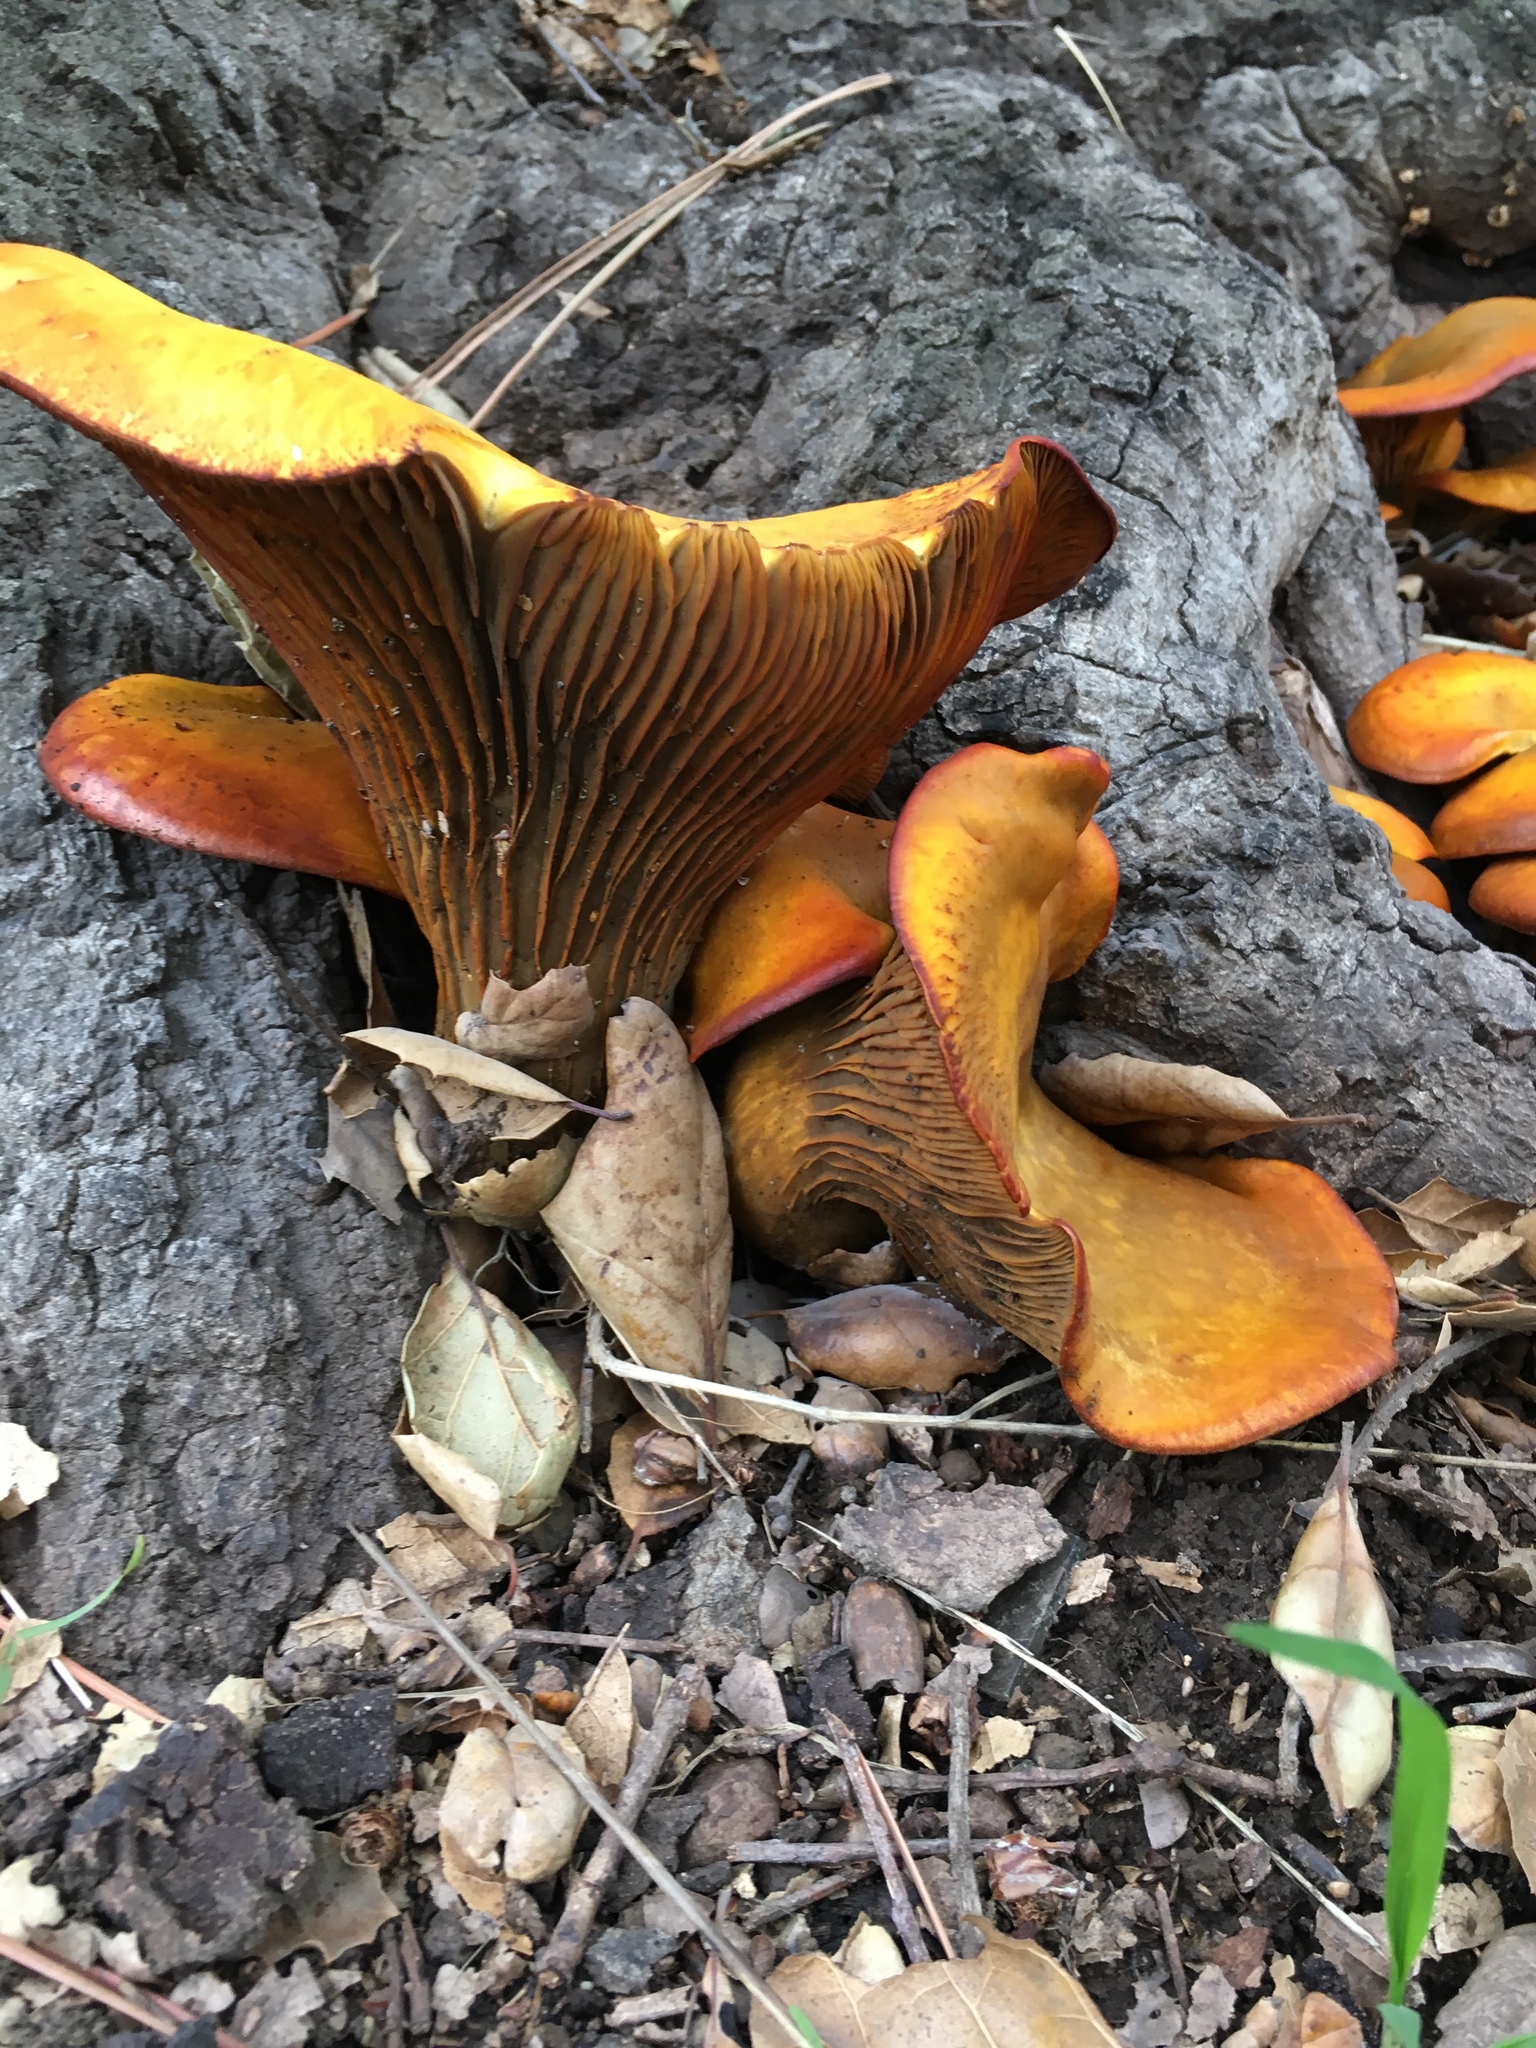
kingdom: Fungi
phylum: Basidiomycota
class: Agaricomycetes
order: Agaricales
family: Omphalotaceae
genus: Omphalotus
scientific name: Omphalotus olivascens
